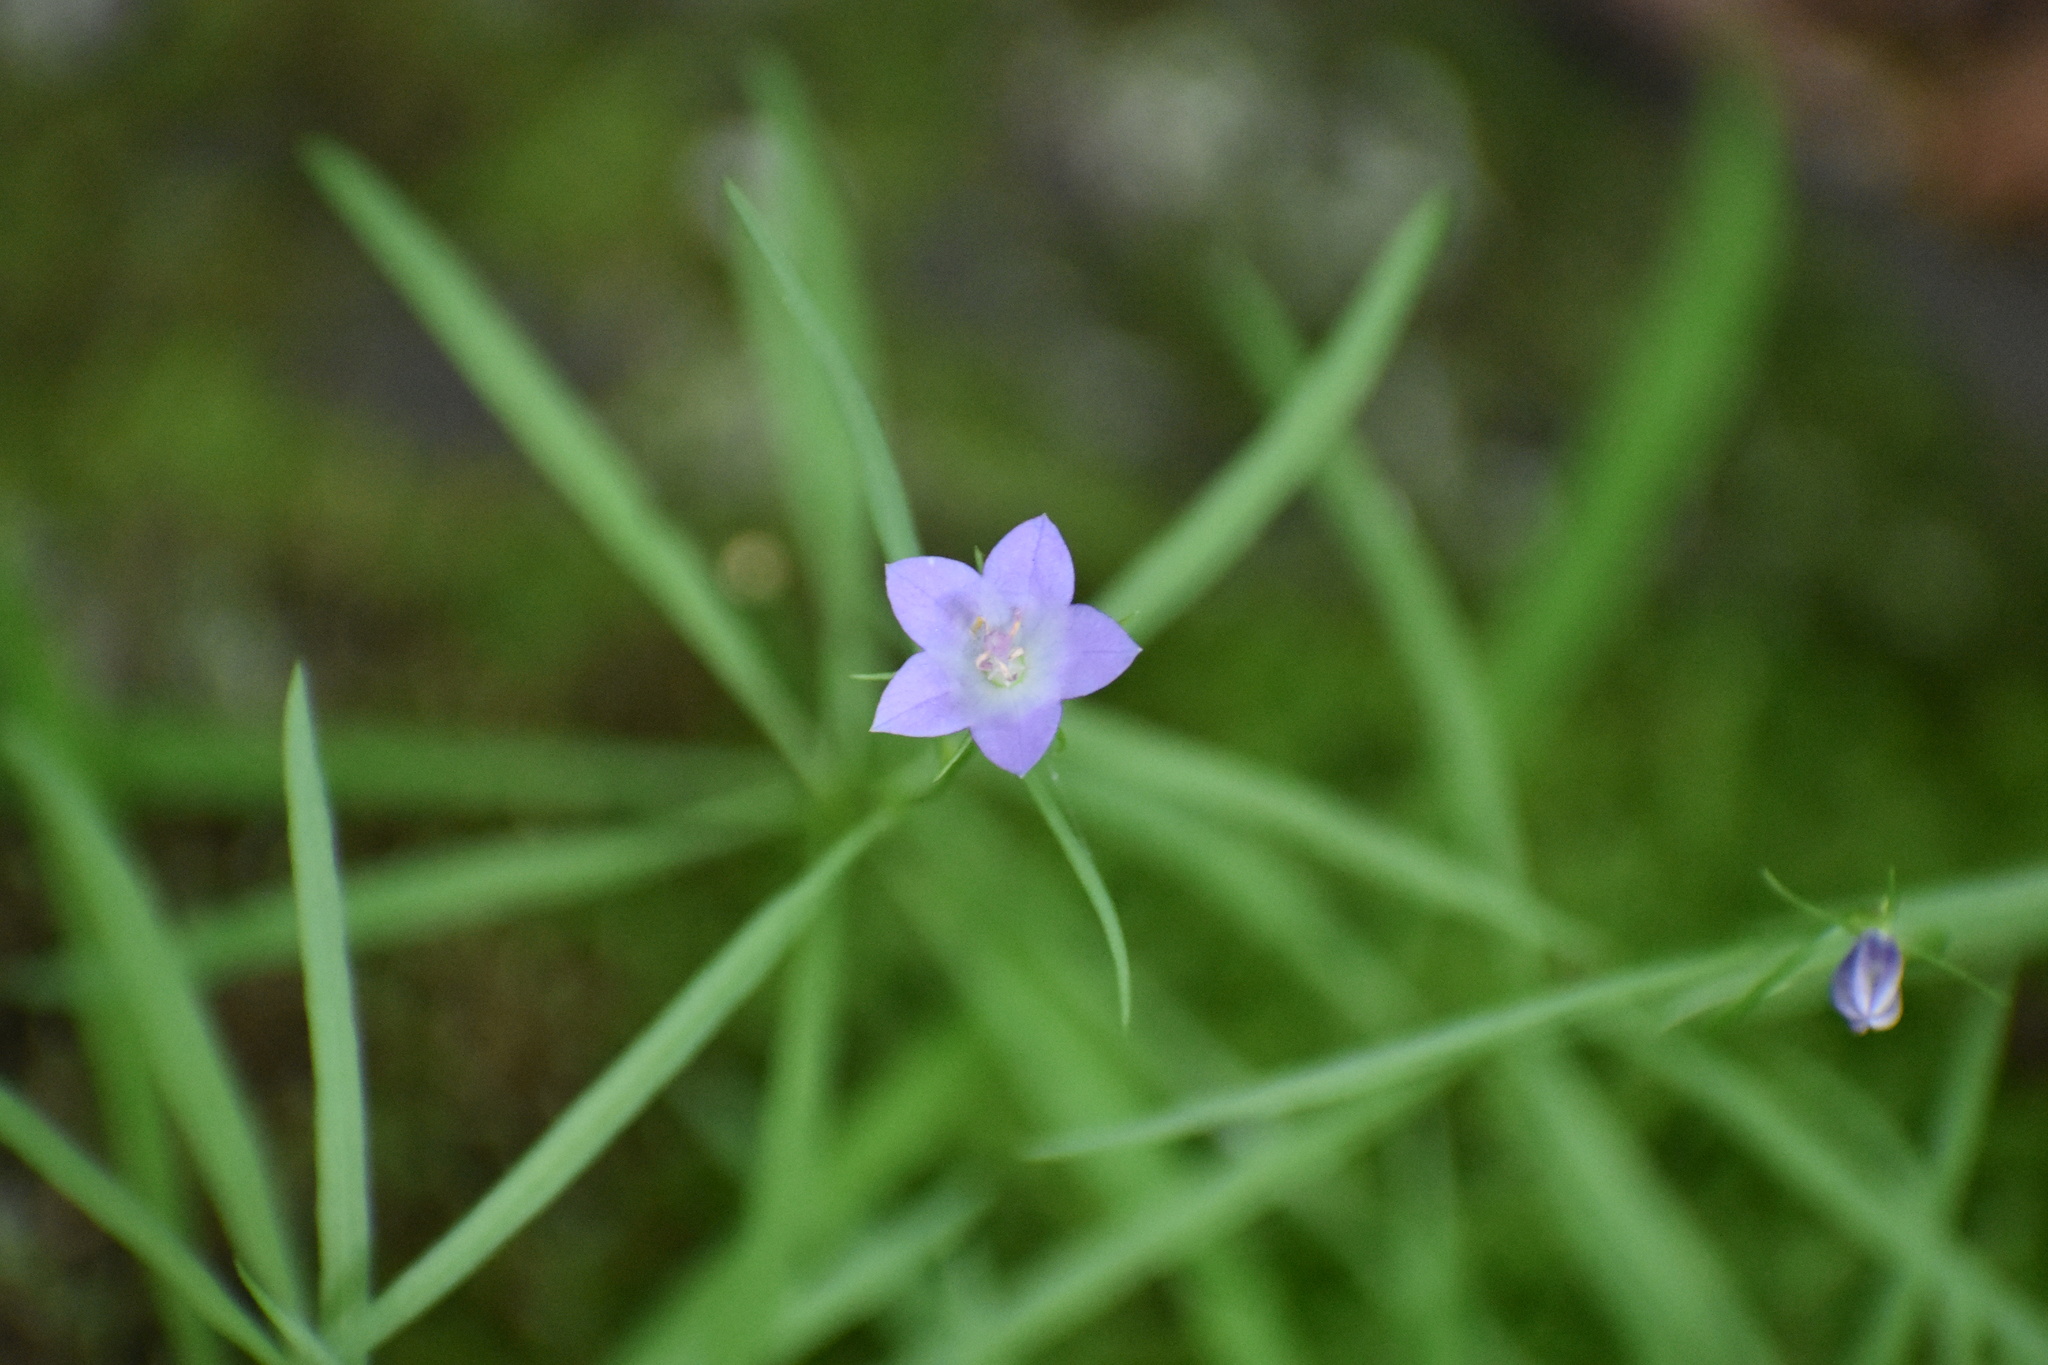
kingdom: Plantae
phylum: Tracheophyta
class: Magnoliopsida
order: Asterales
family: Campanulaceae
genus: Campanula
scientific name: Campanula intercedens
